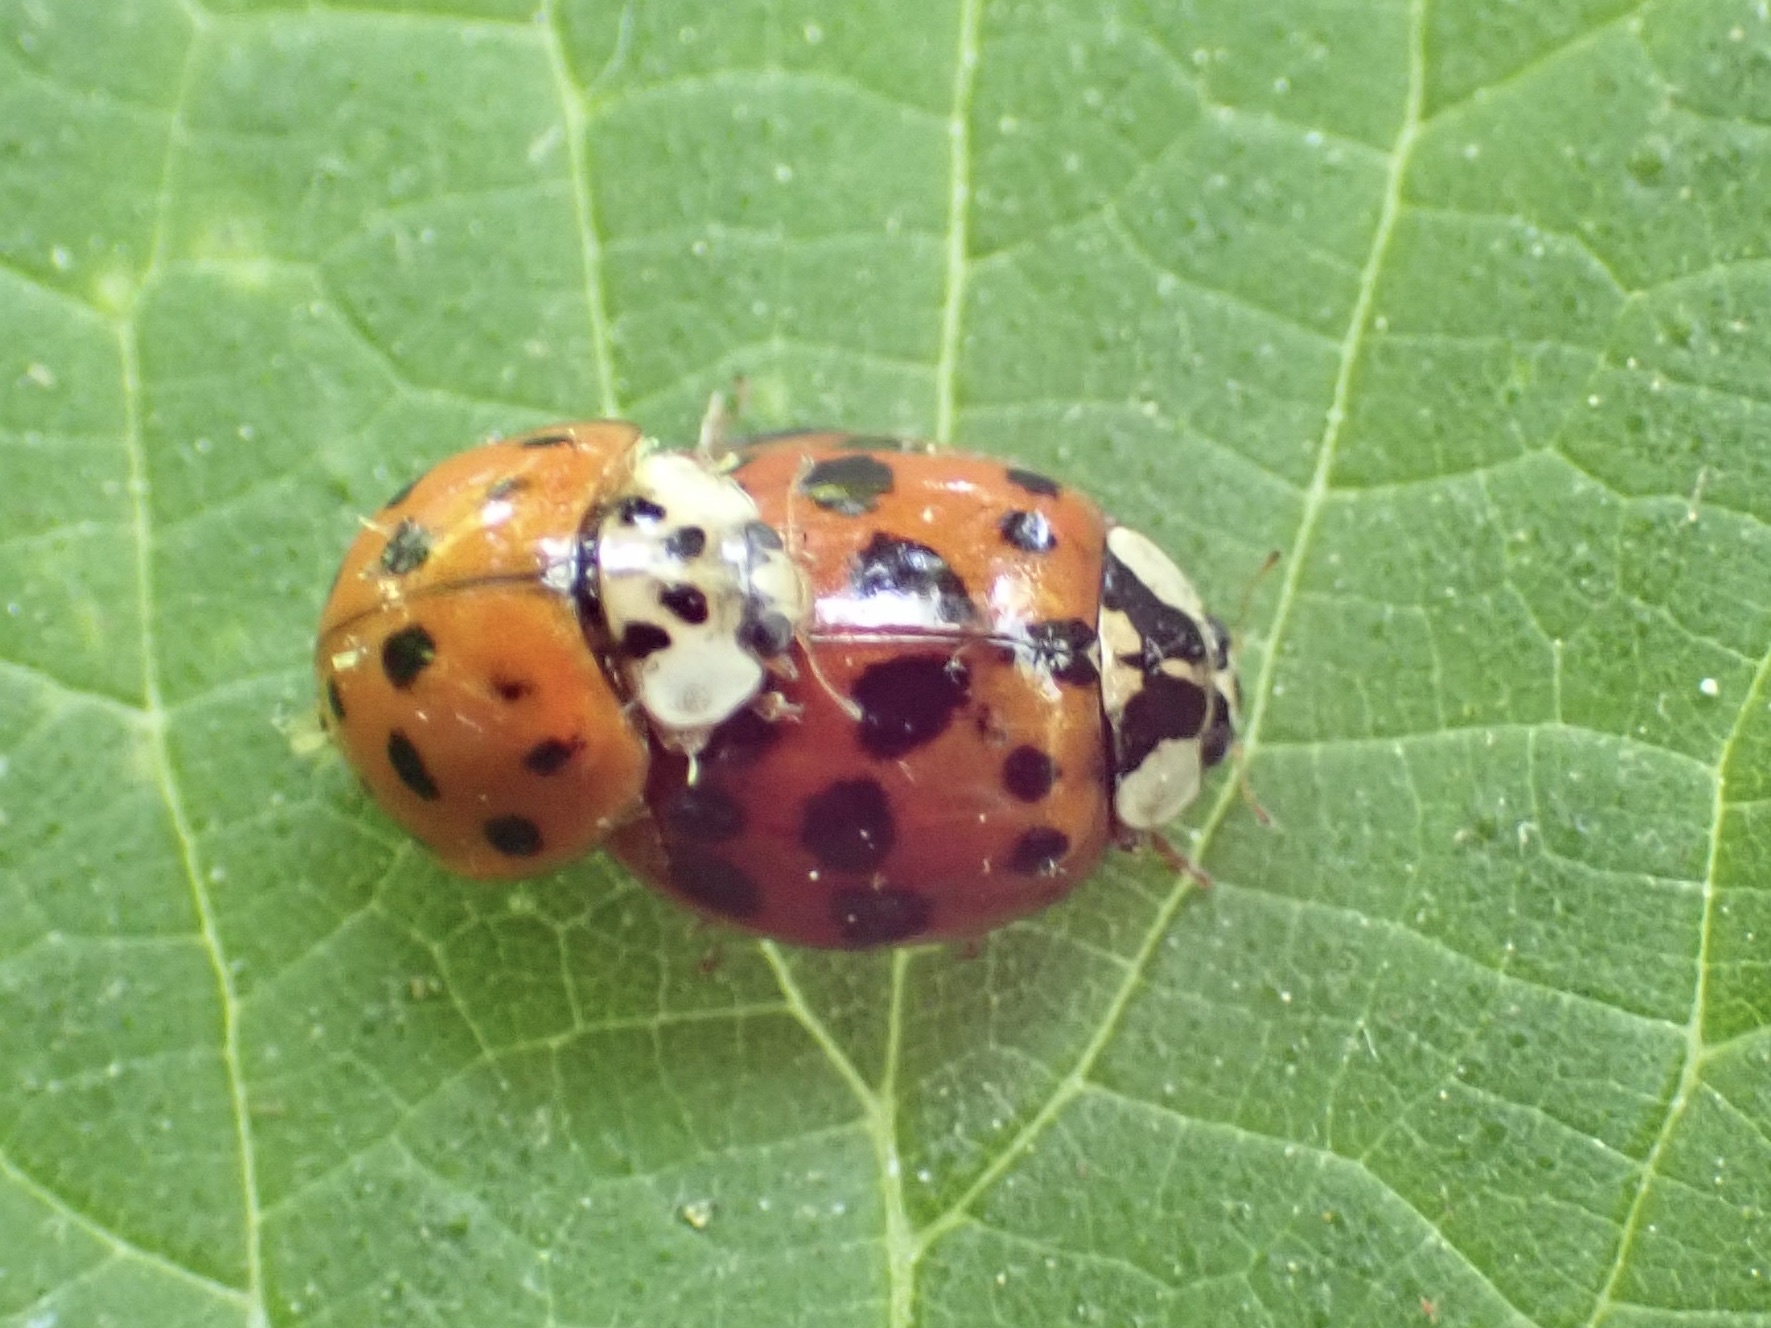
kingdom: Animalia
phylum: Arthropoda
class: Insecta
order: Coleoptera
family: Coccinellidae
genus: Harmonia
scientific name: Harmonia axyridis
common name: Harlequin ladybird
